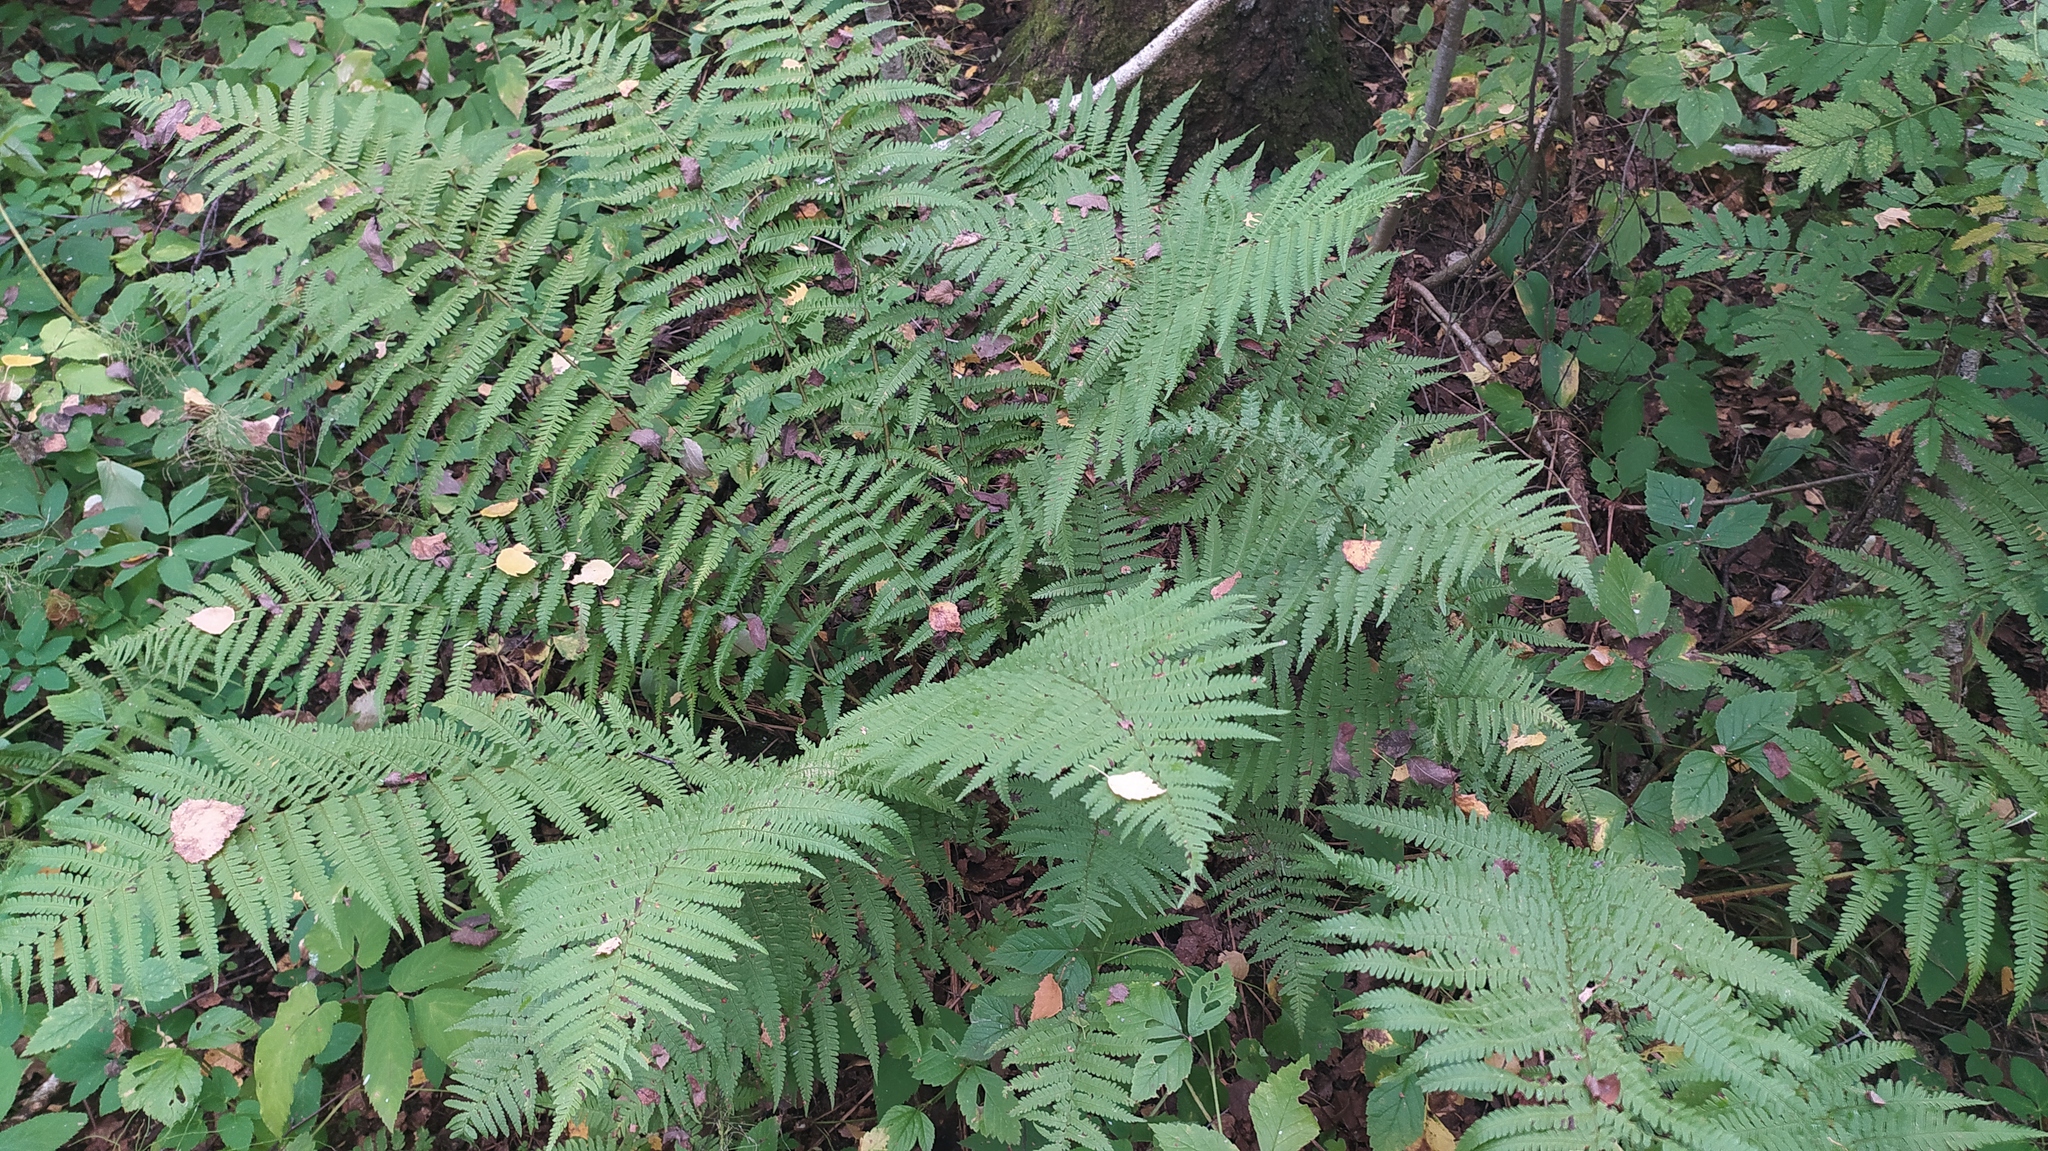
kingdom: Plantae
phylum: Tracheophyta
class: Polypodiopsida
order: Polypodiales
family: Dryopteridaceae
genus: Dryopteris
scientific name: Dryopteris filix-mas
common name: Male fern
